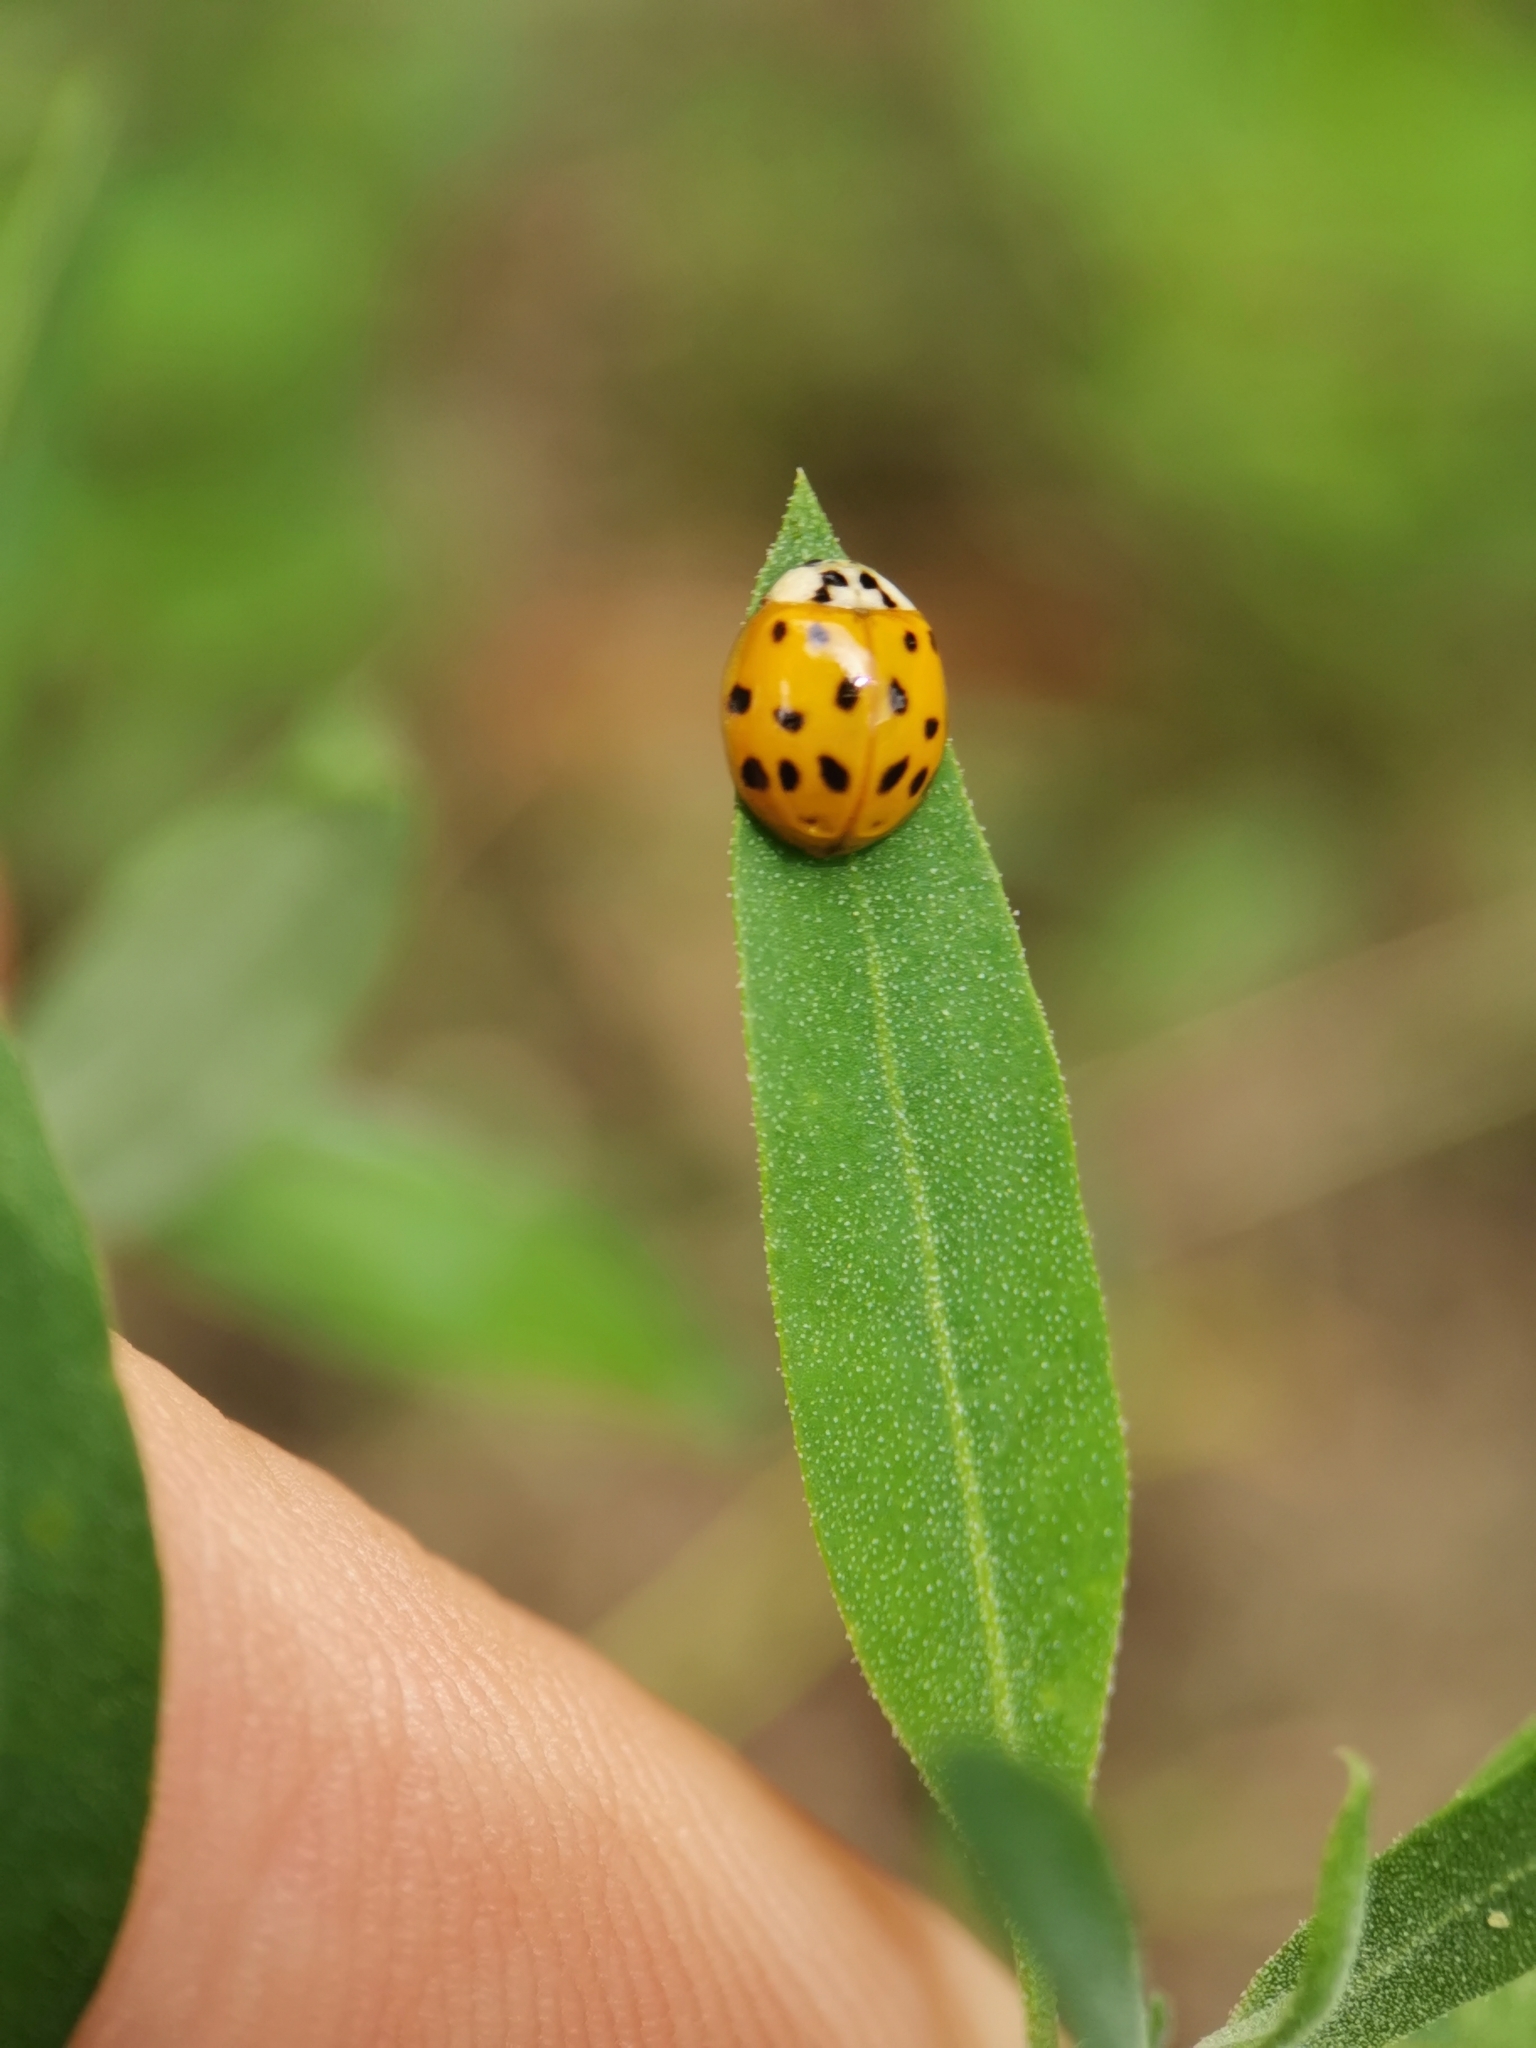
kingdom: Animalia
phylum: Arthropoda
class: Insecta
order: Coleoptera
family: Coccinellidae
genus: Harmonia
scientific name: Harmonia axyridis
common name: Harlequin ladybird
